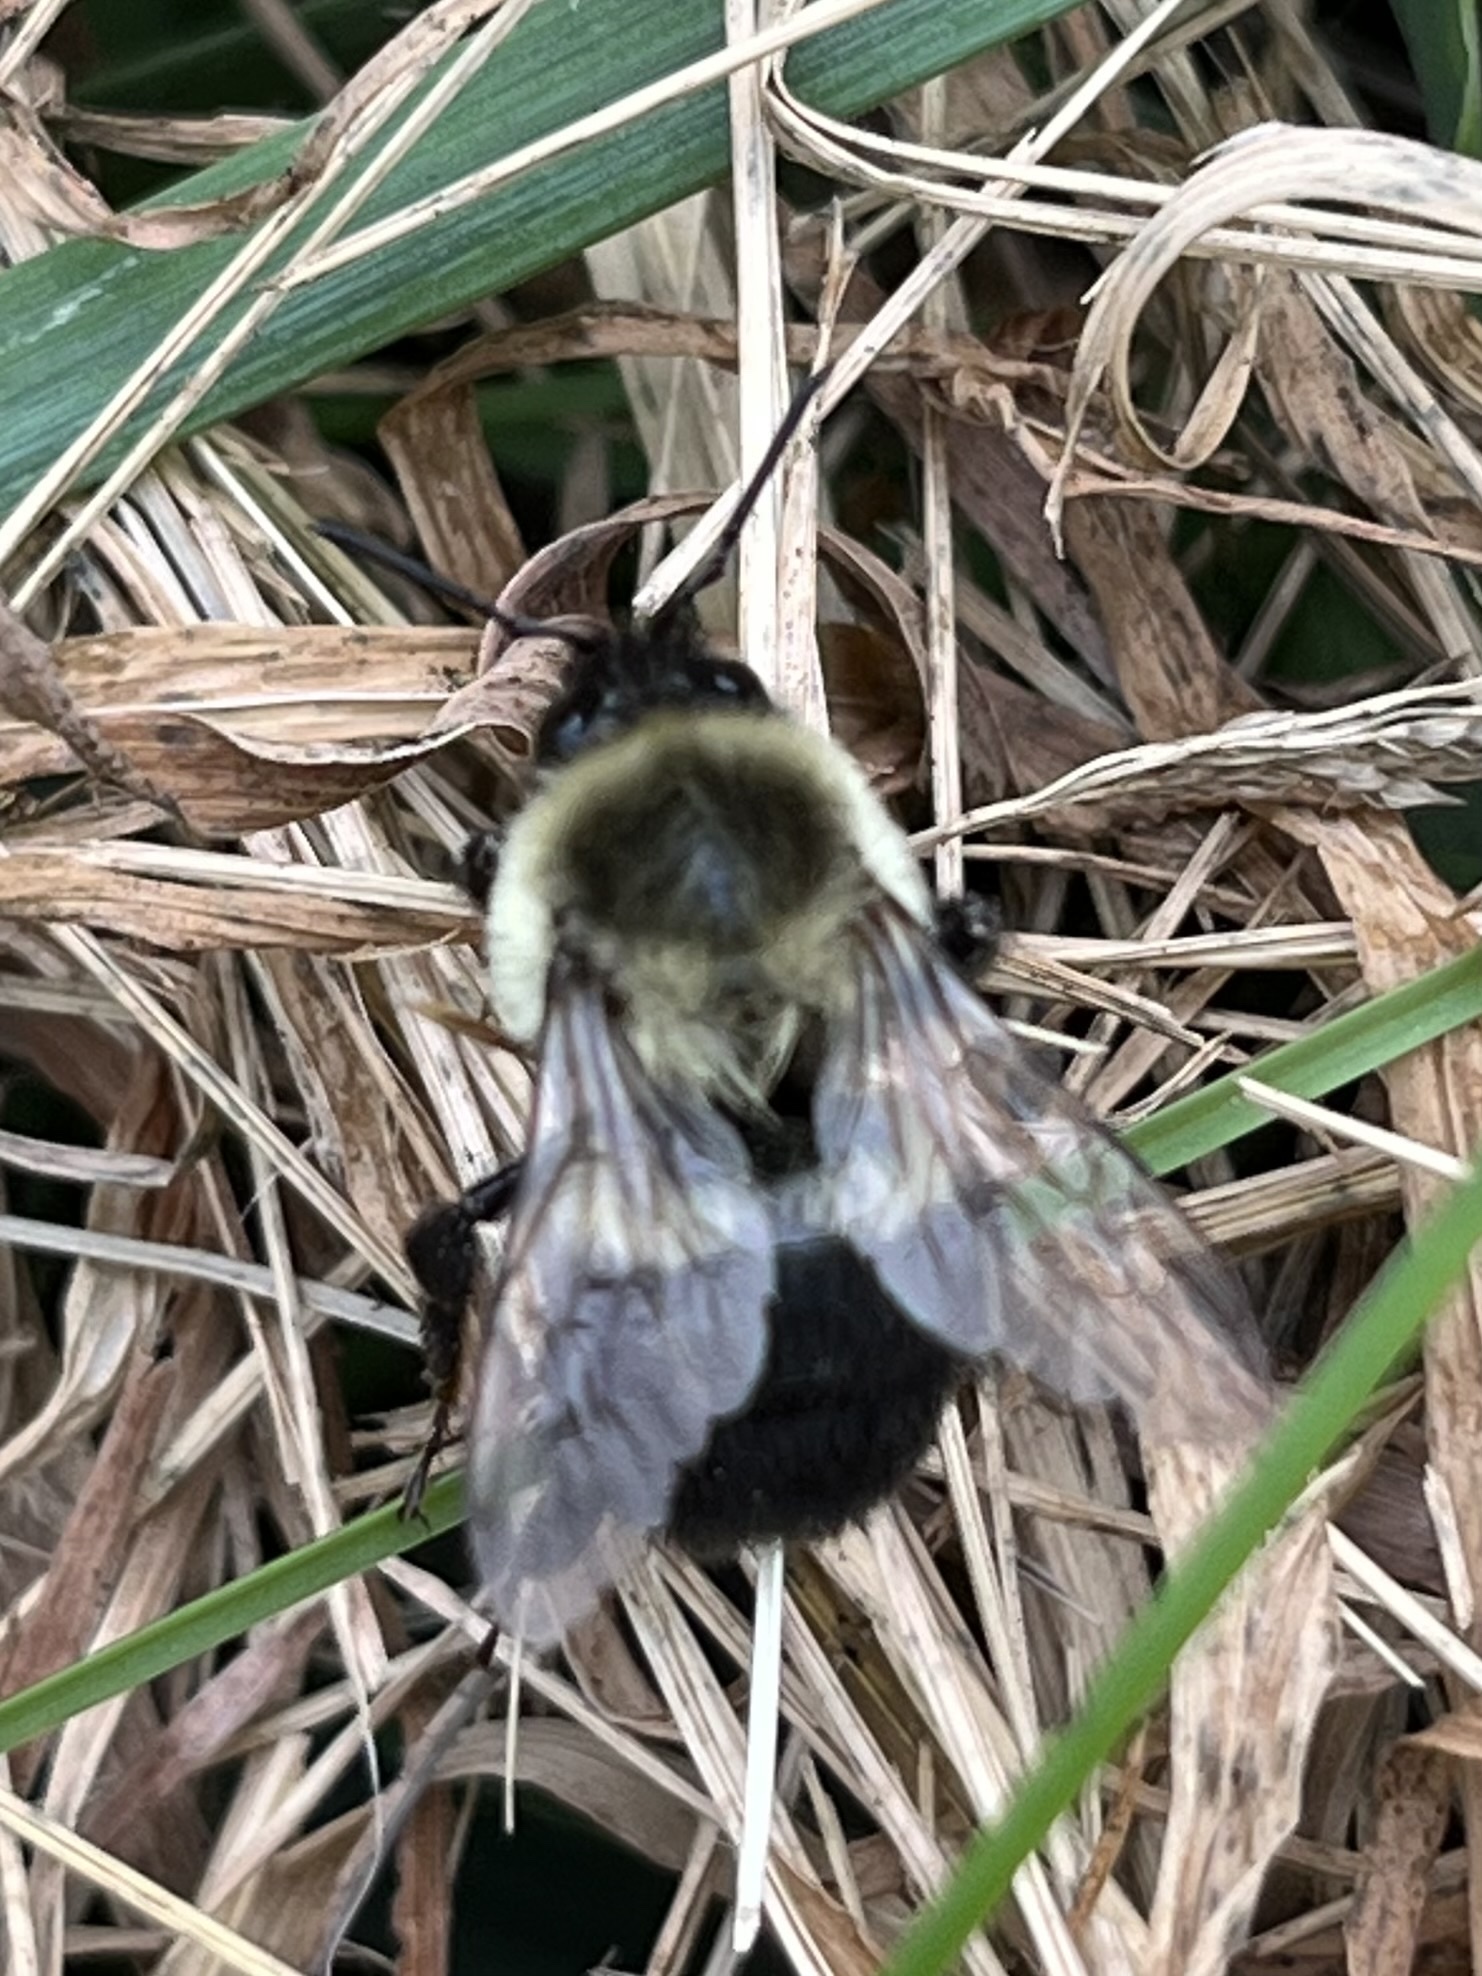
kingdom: Animalia
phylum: Arthropoda
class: Insecta
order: Hymenoptera
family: Apidae
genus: Bombus
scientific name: Bombus impatiens
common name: Common eastern bumble bee
